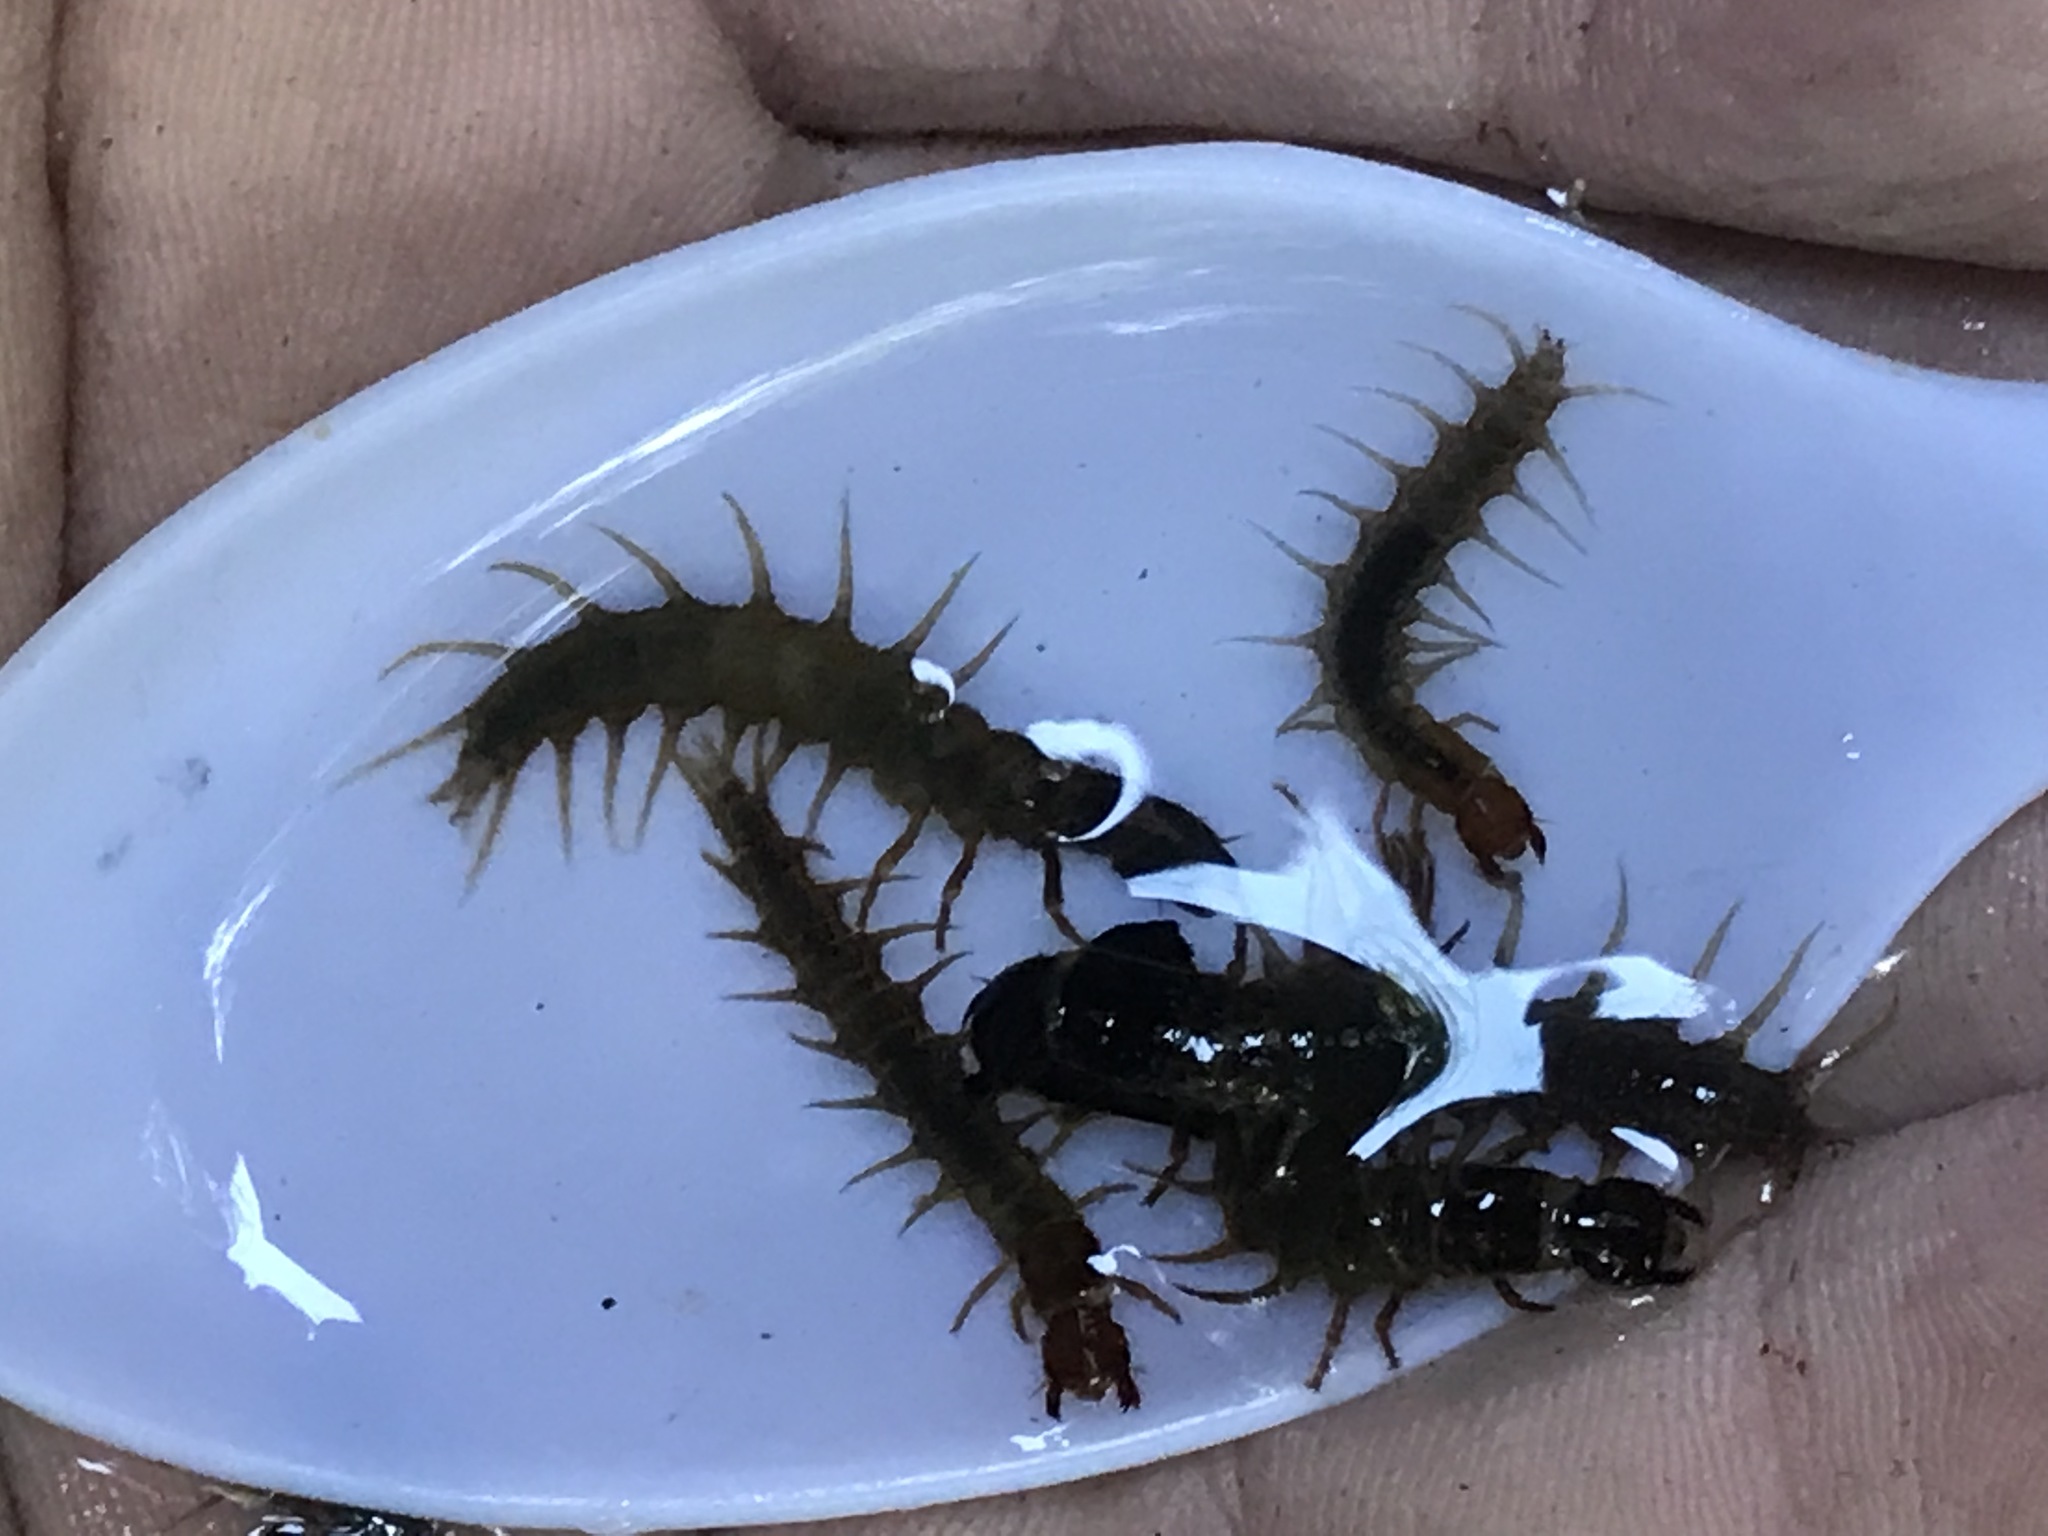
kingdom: Animalia
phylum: Arthropoda
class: Insecta
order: Megaloptera
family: Corydalidae
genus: Archichauliodes
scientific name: Archichauliodes diversus
